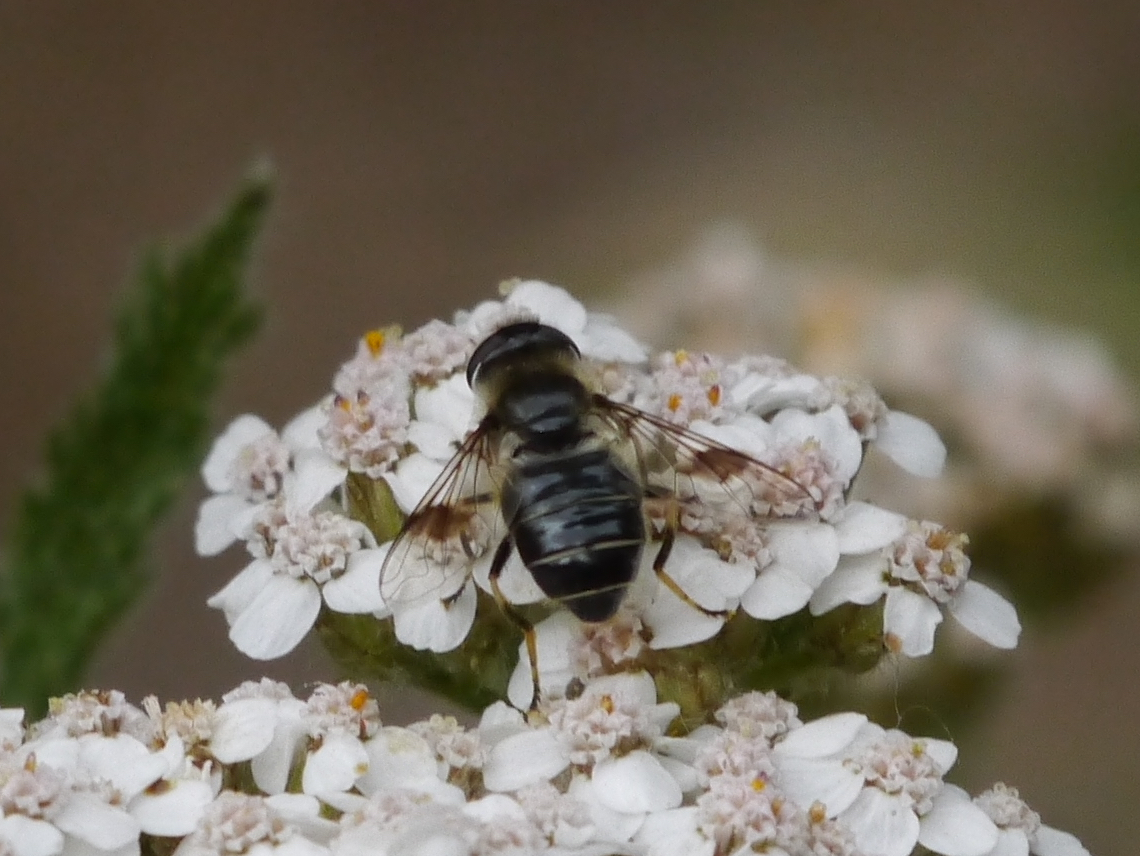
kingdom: Animalia
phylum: Arthropoda
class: Insecta
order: Diptera
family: Syrphidae
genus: Eristalis
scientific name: Eristalis rupium
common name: Hover fly
